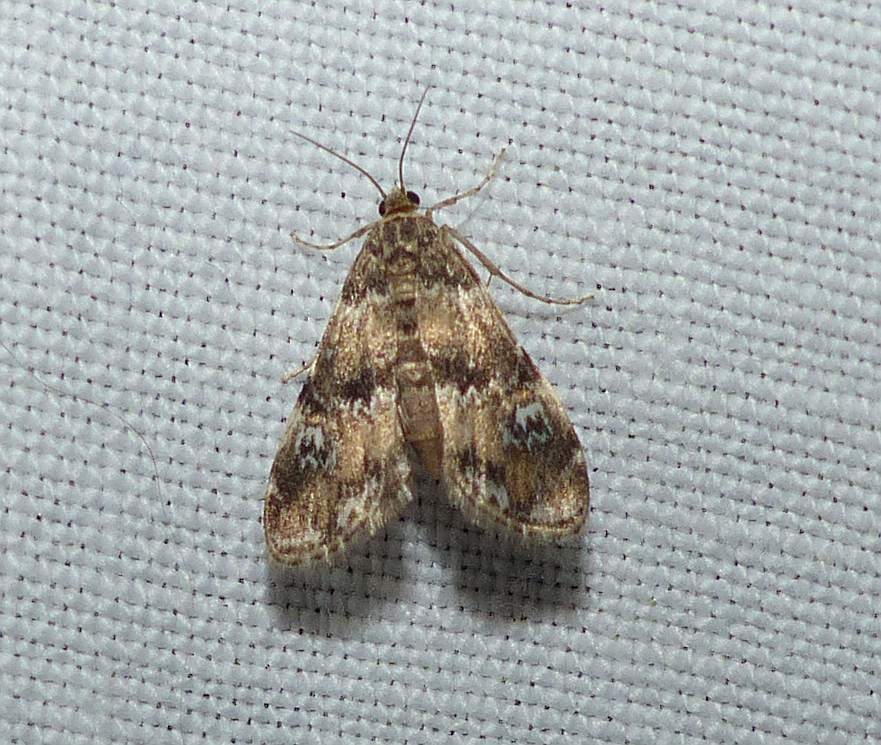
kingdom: Animalia
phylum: Arthropoda
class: Insecta
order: Lepidoptera
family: Crambidae
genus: Elophila
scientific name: Elophila obliteralis
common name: Waterlily leafcutter moth
